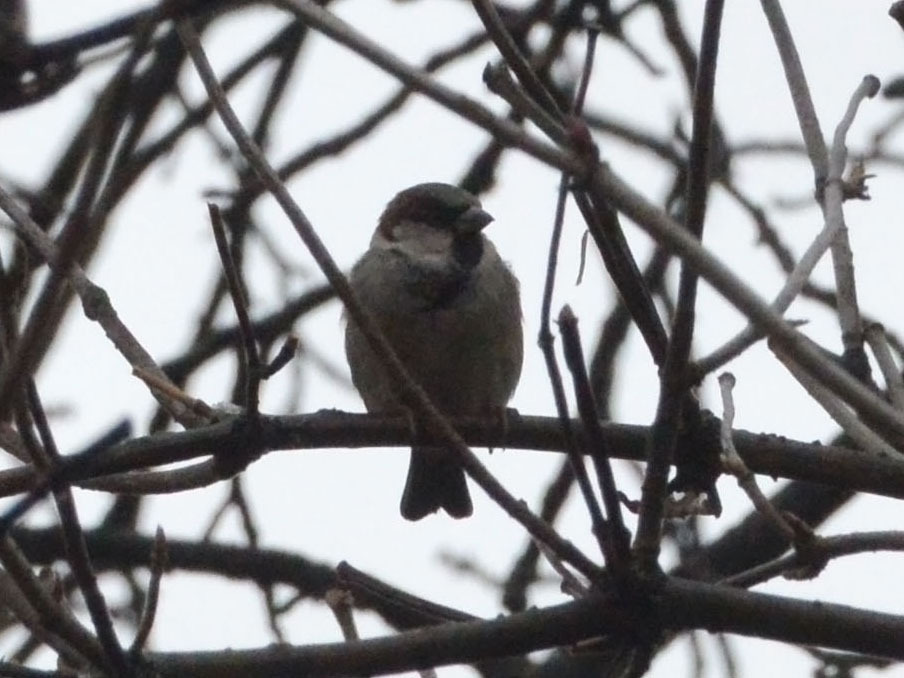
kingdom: Animalia
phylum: Chordata
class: Aves
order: Passeriformes
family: Passeridae
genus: Passer
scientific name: Passer domesticus
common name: House sparrow
